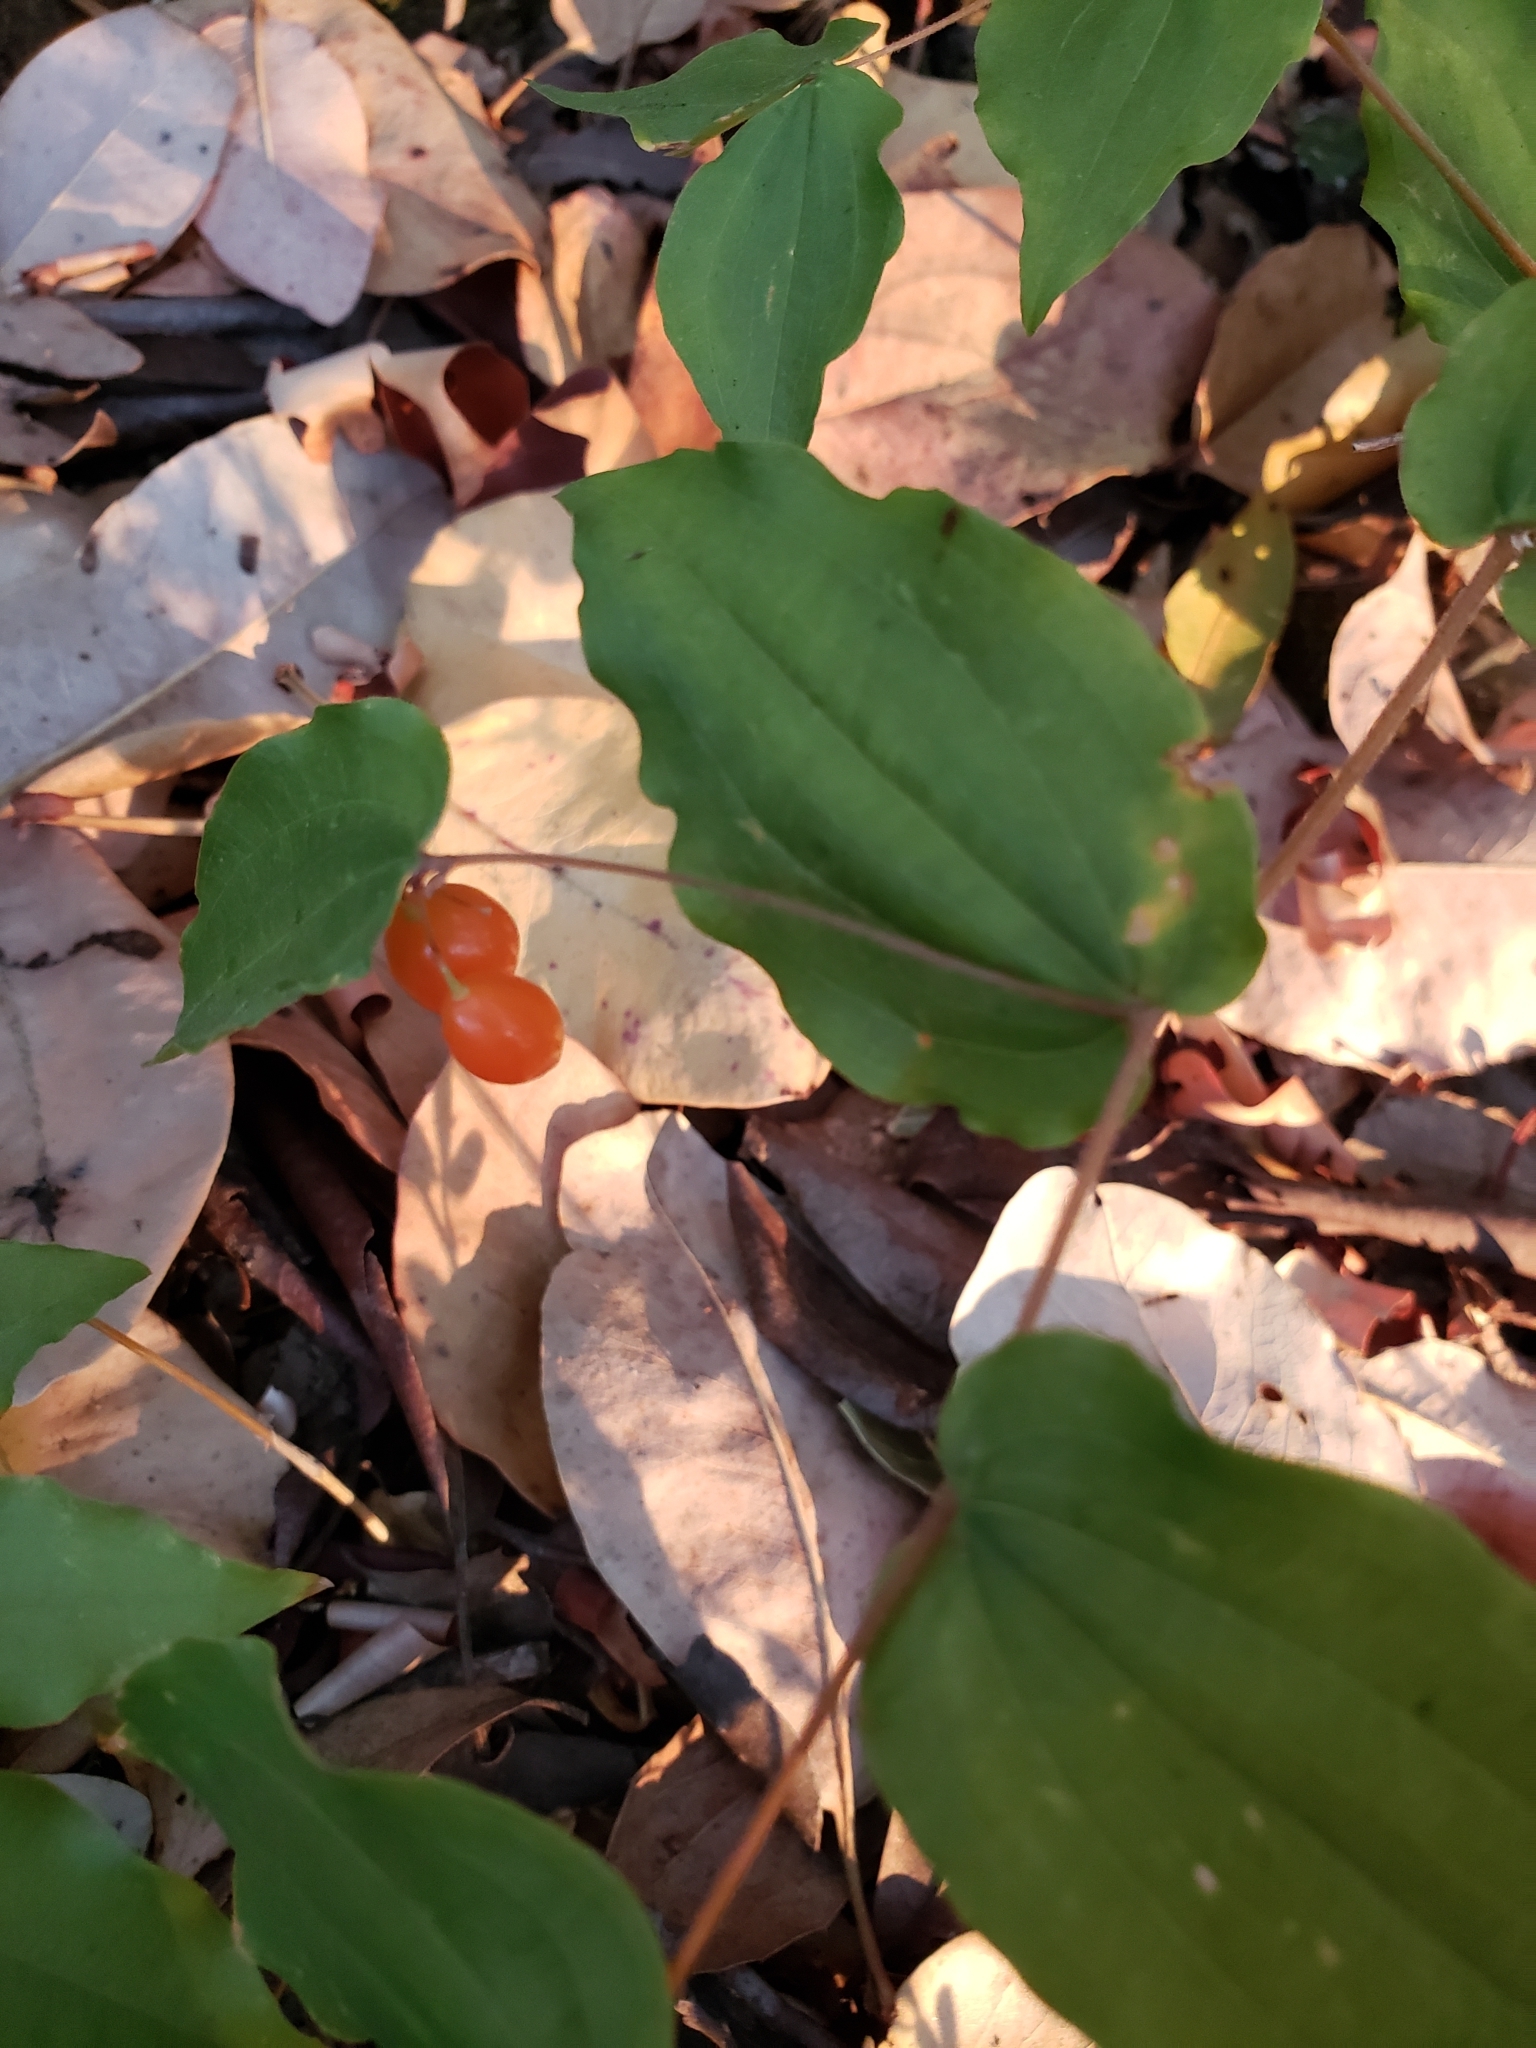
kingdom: Plantae
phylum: Tracheophyta
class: Liliopsida
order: Liliales
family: Liliaceae
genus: Prosartes
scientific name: Prosartes hookeri
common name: Fairy-bells
